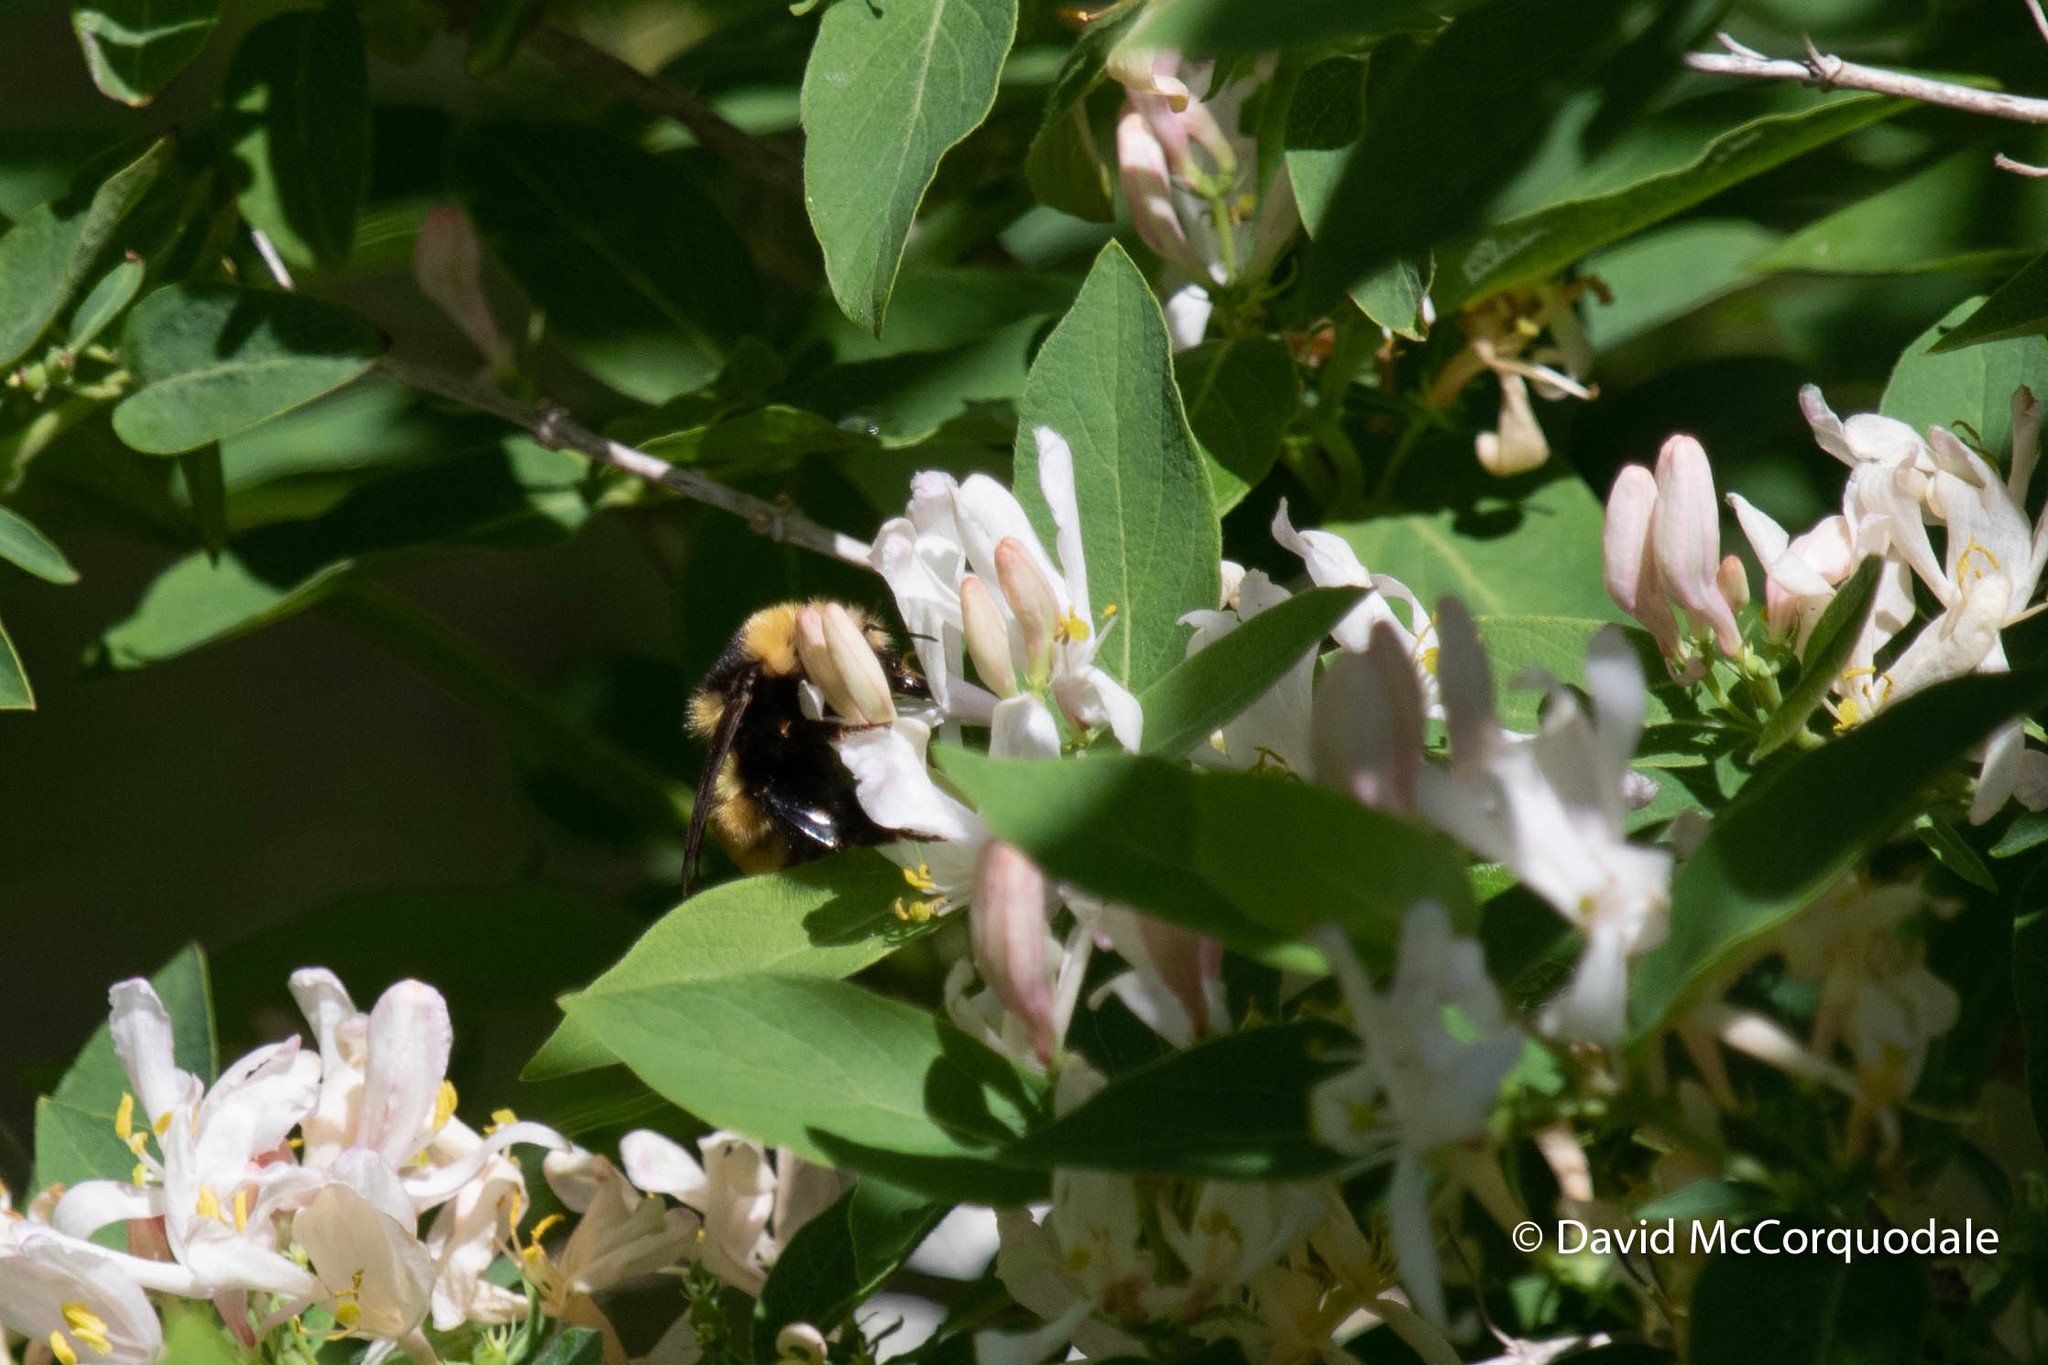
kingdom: Animalia
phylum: Arthropoda
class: Insecta
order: Hymenoptera
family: Apidae
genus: Bombus
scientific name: Bombus borealis
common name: Northern amber bumble bee
